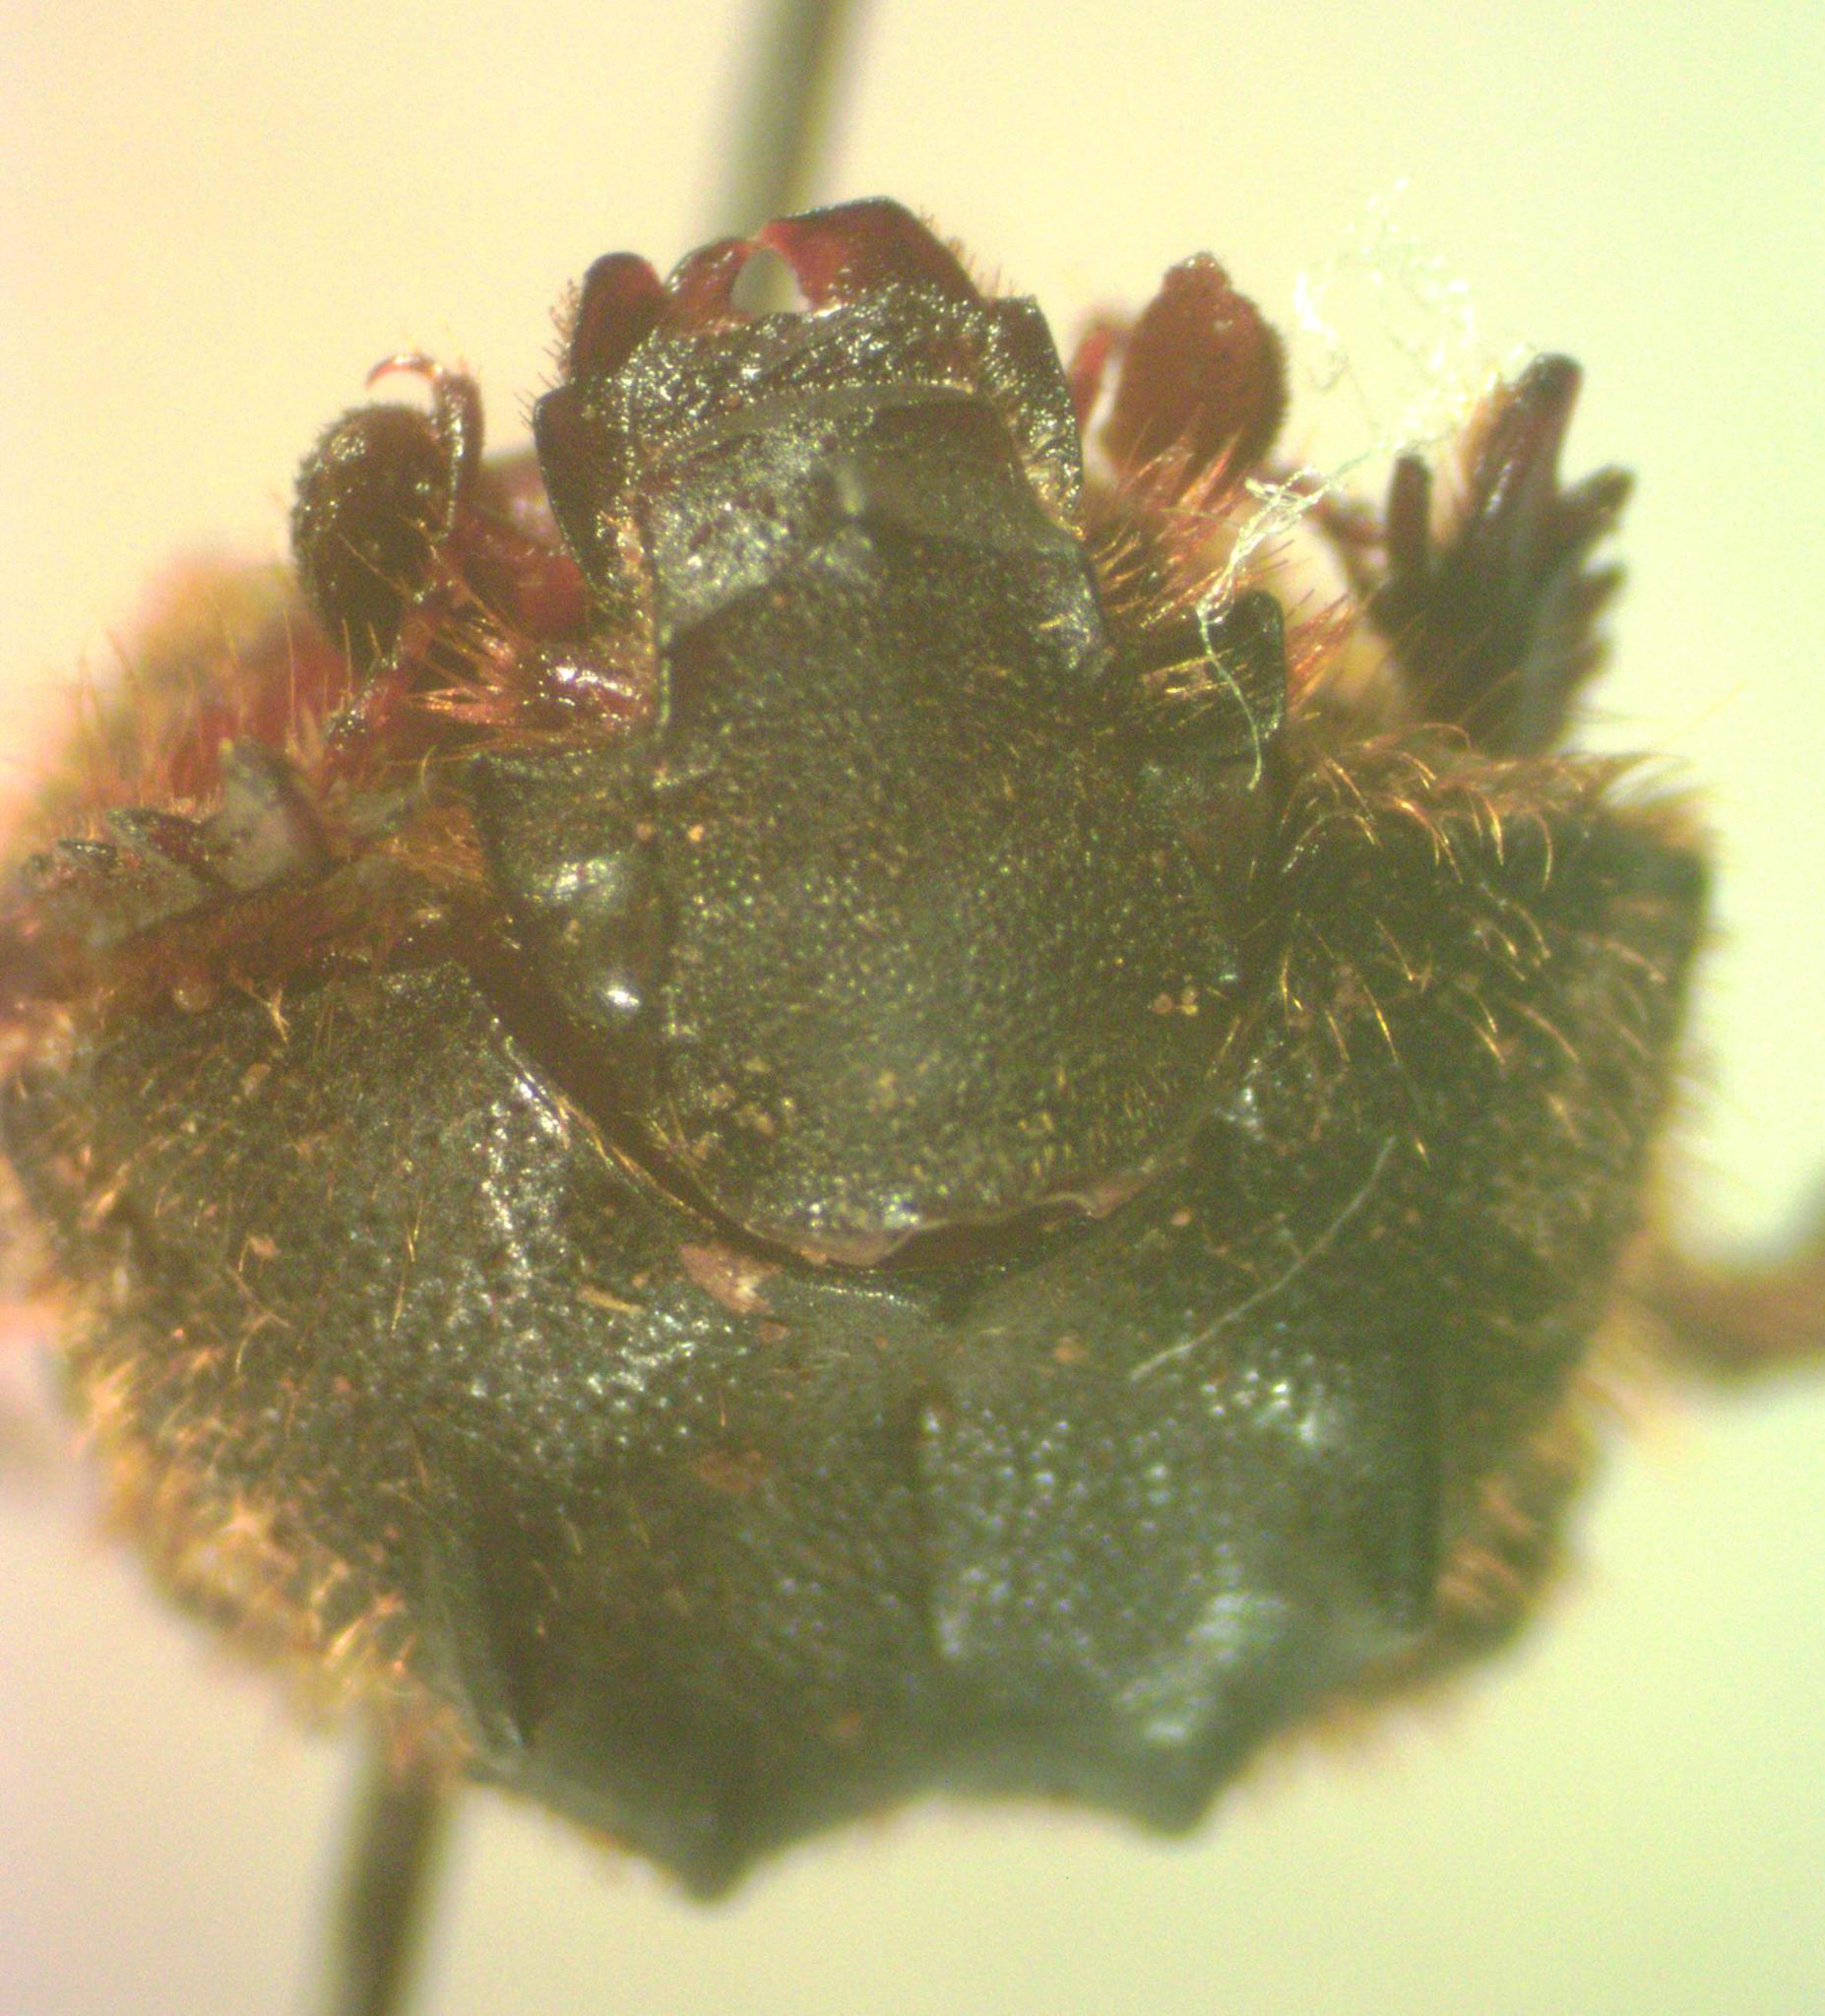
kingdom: Animalia
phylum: Arthropoda
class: Insecta
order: Coleoptera
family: Geotrupidae
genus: Neoathyreus
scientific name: Neoathyreus planatus
